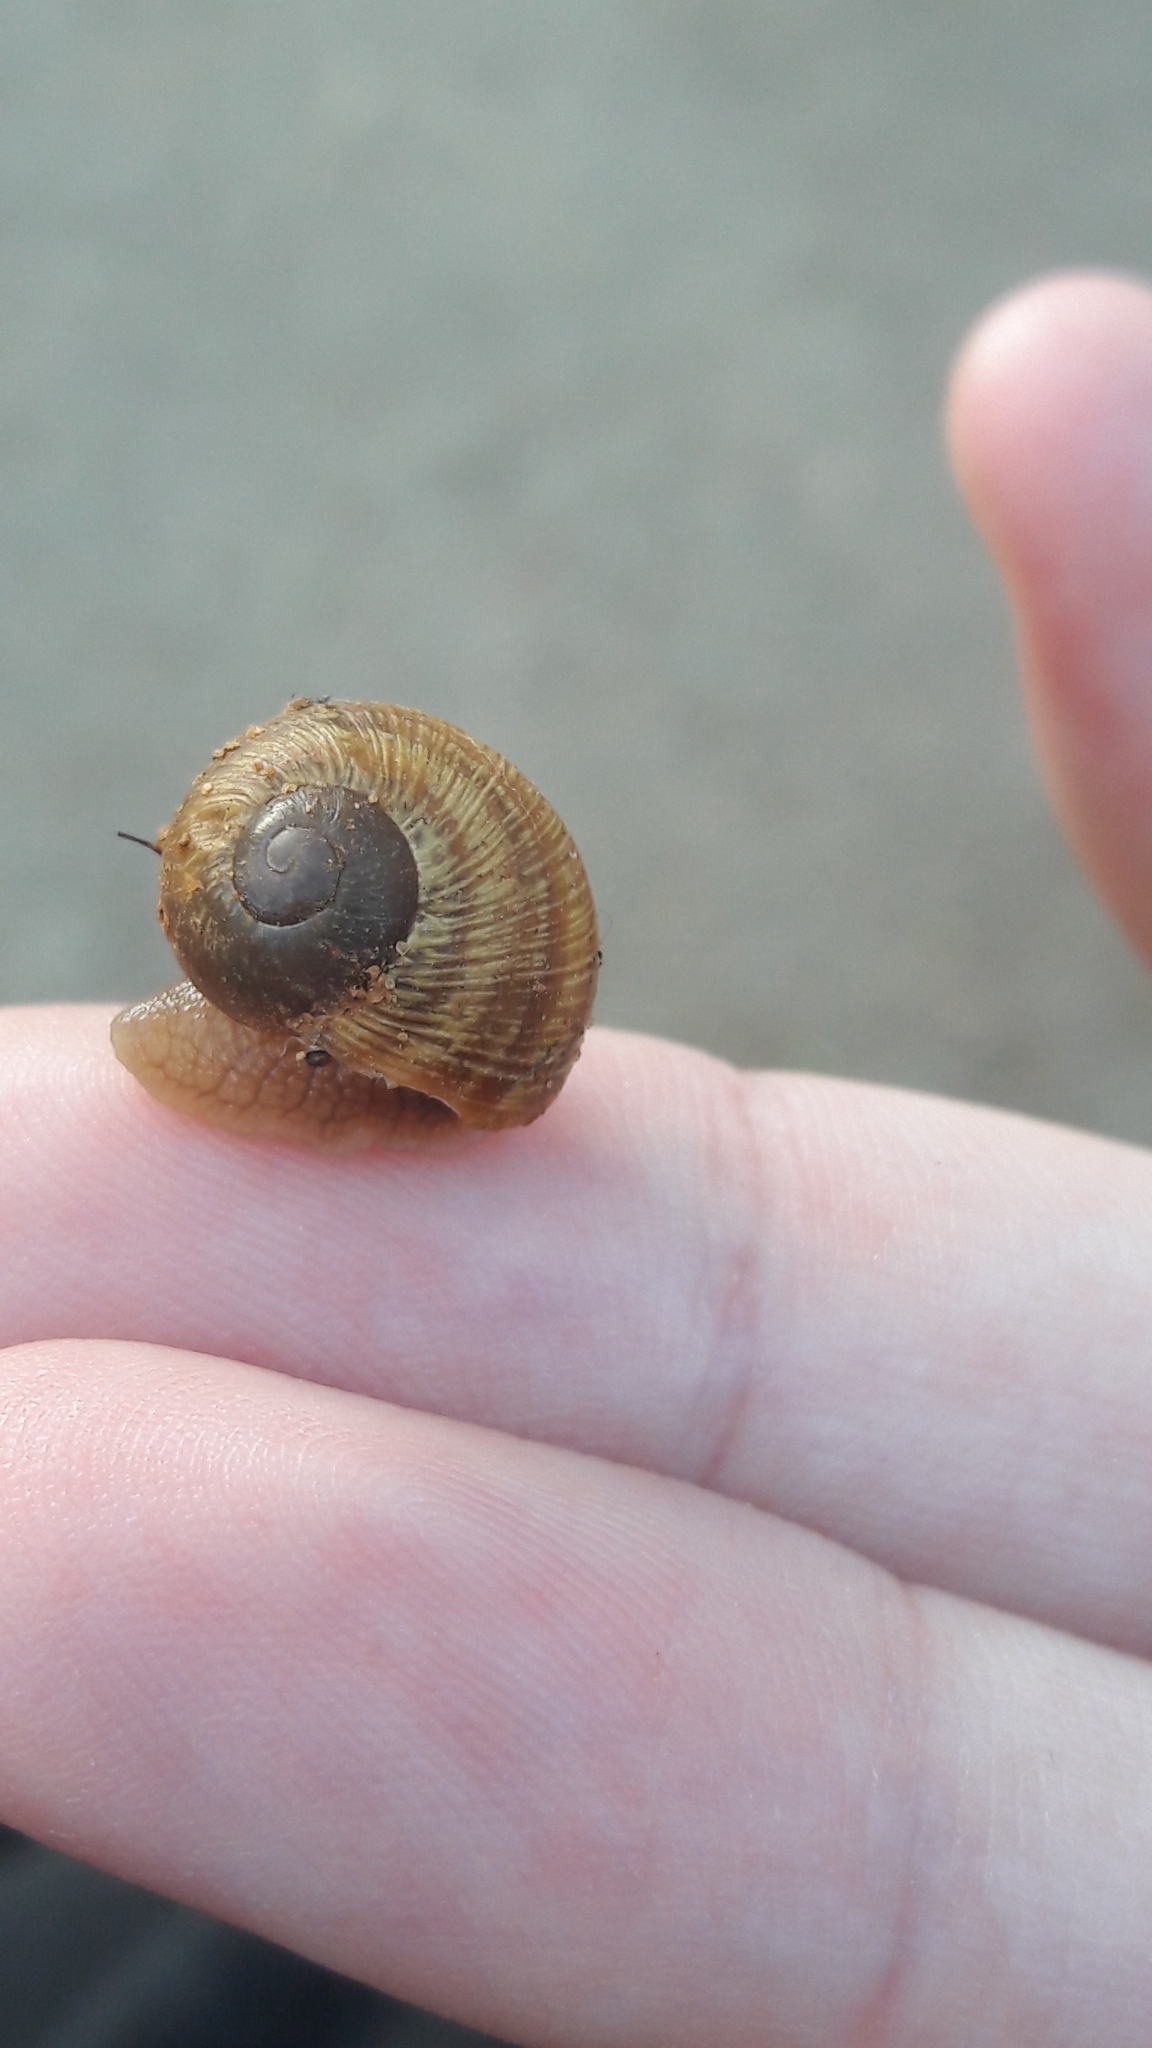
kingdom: Animalia
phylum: Mollusca
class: Gastropoda
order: Stylommatophora
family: Helicidae
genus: Helix
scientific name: Helix engaddensis
